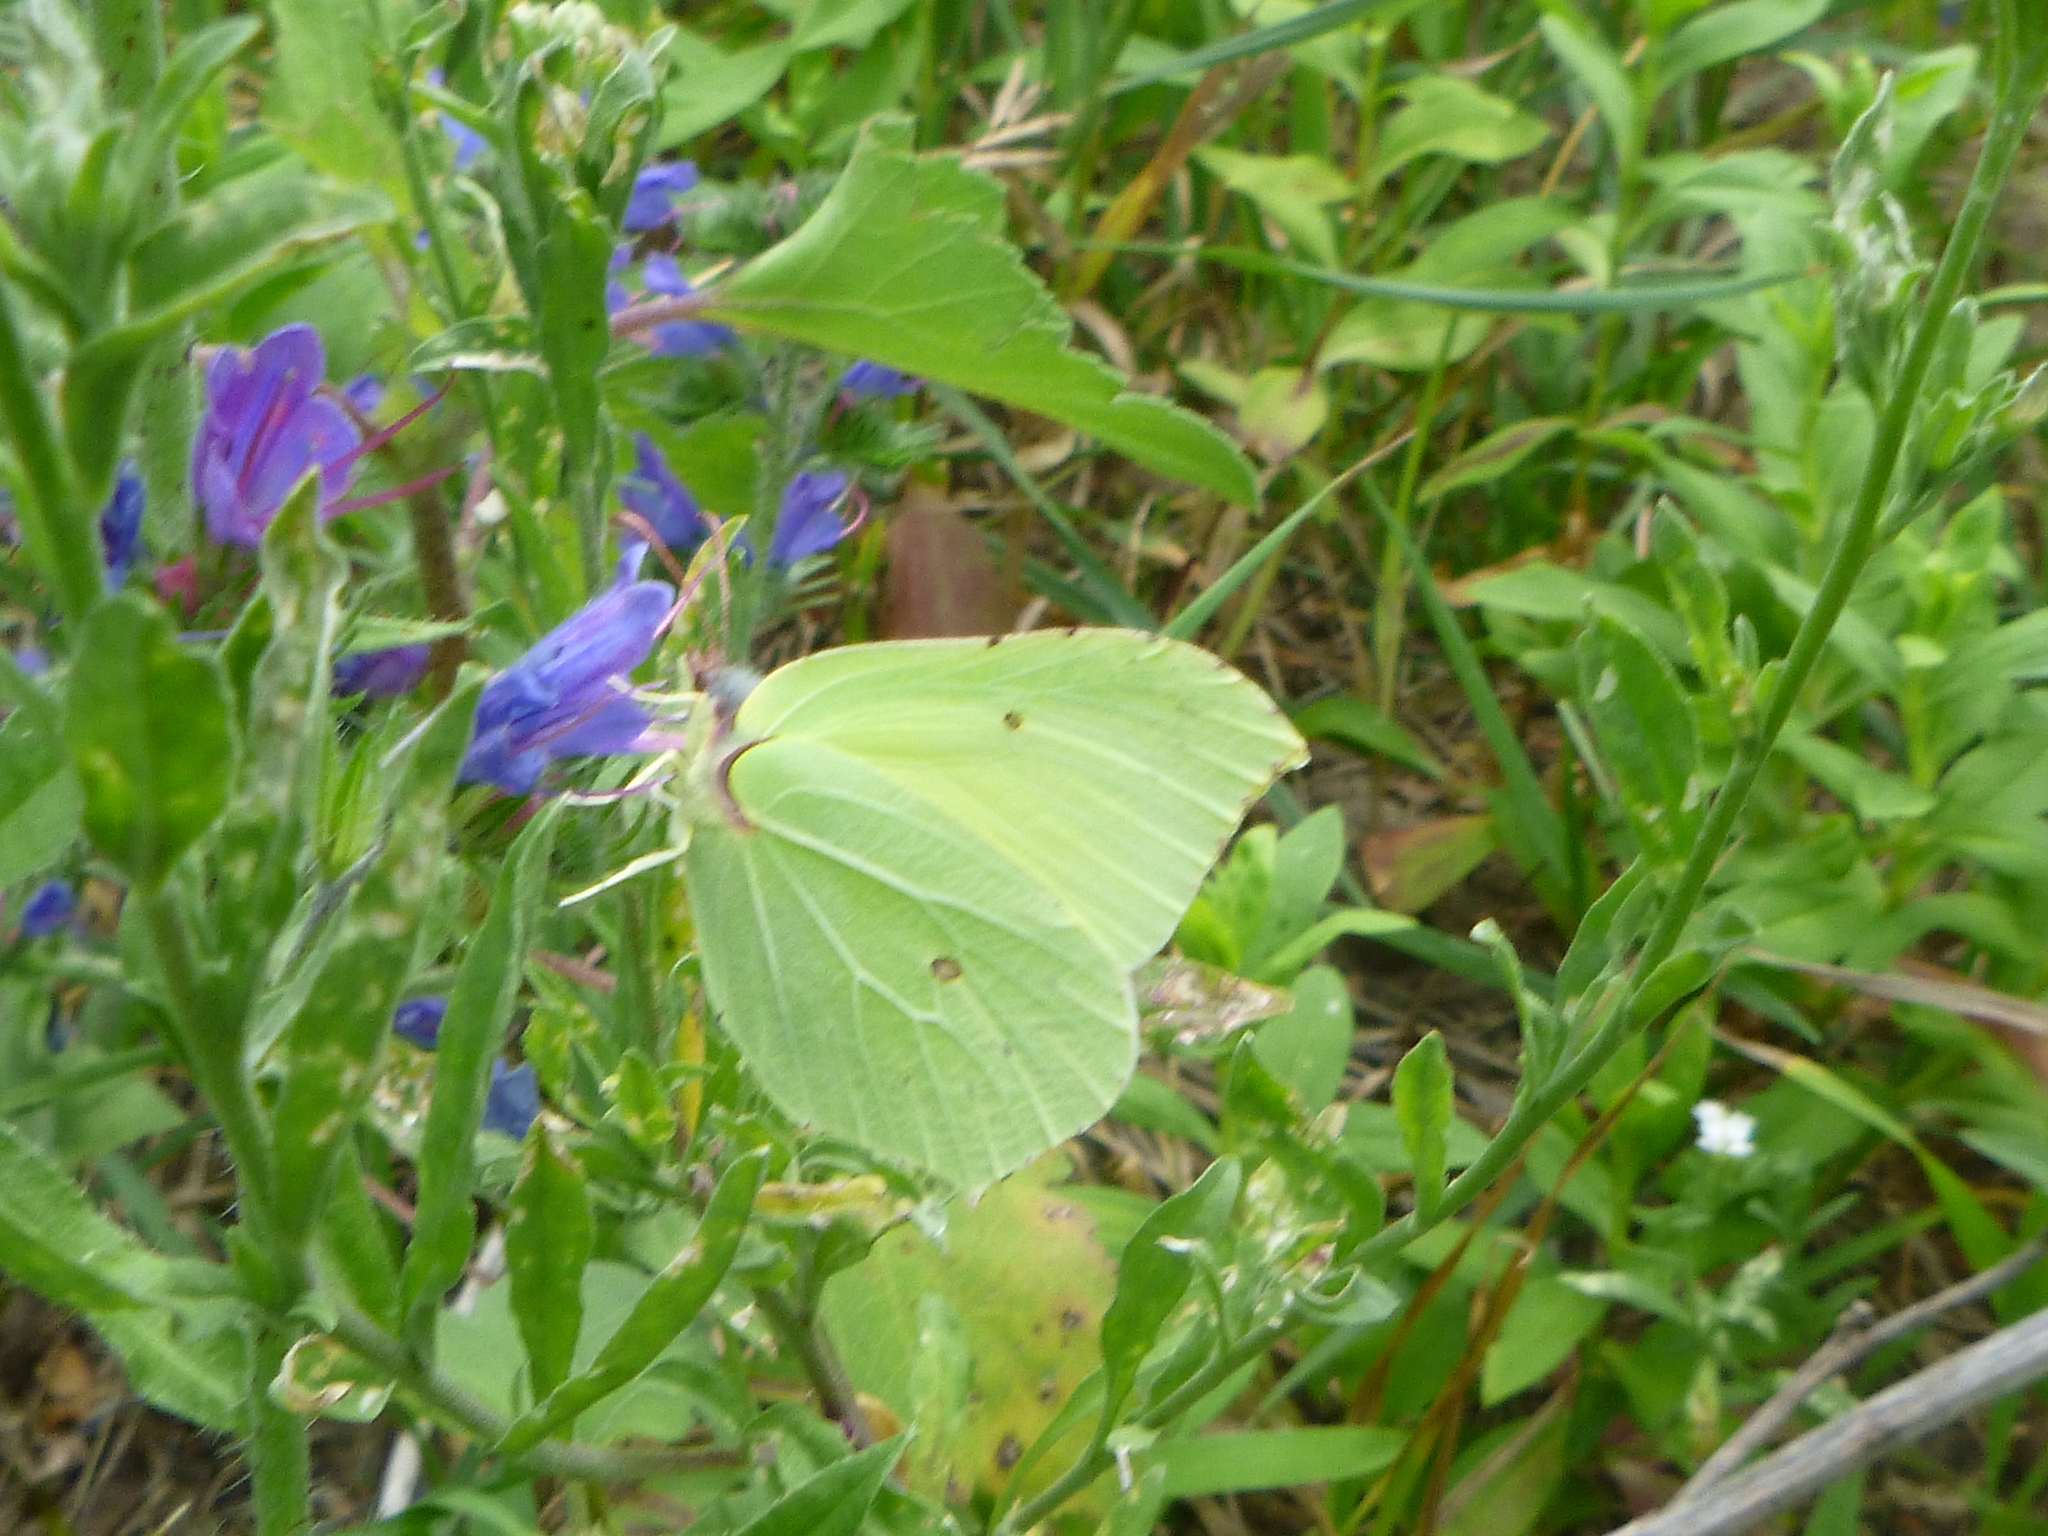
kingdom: Animalia
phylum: Arthropoda
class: Insecta
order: Lepidoptera
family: Pieridae
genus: Gonepteryx
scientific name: Gonepteryx rhamni
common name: Brimstone
